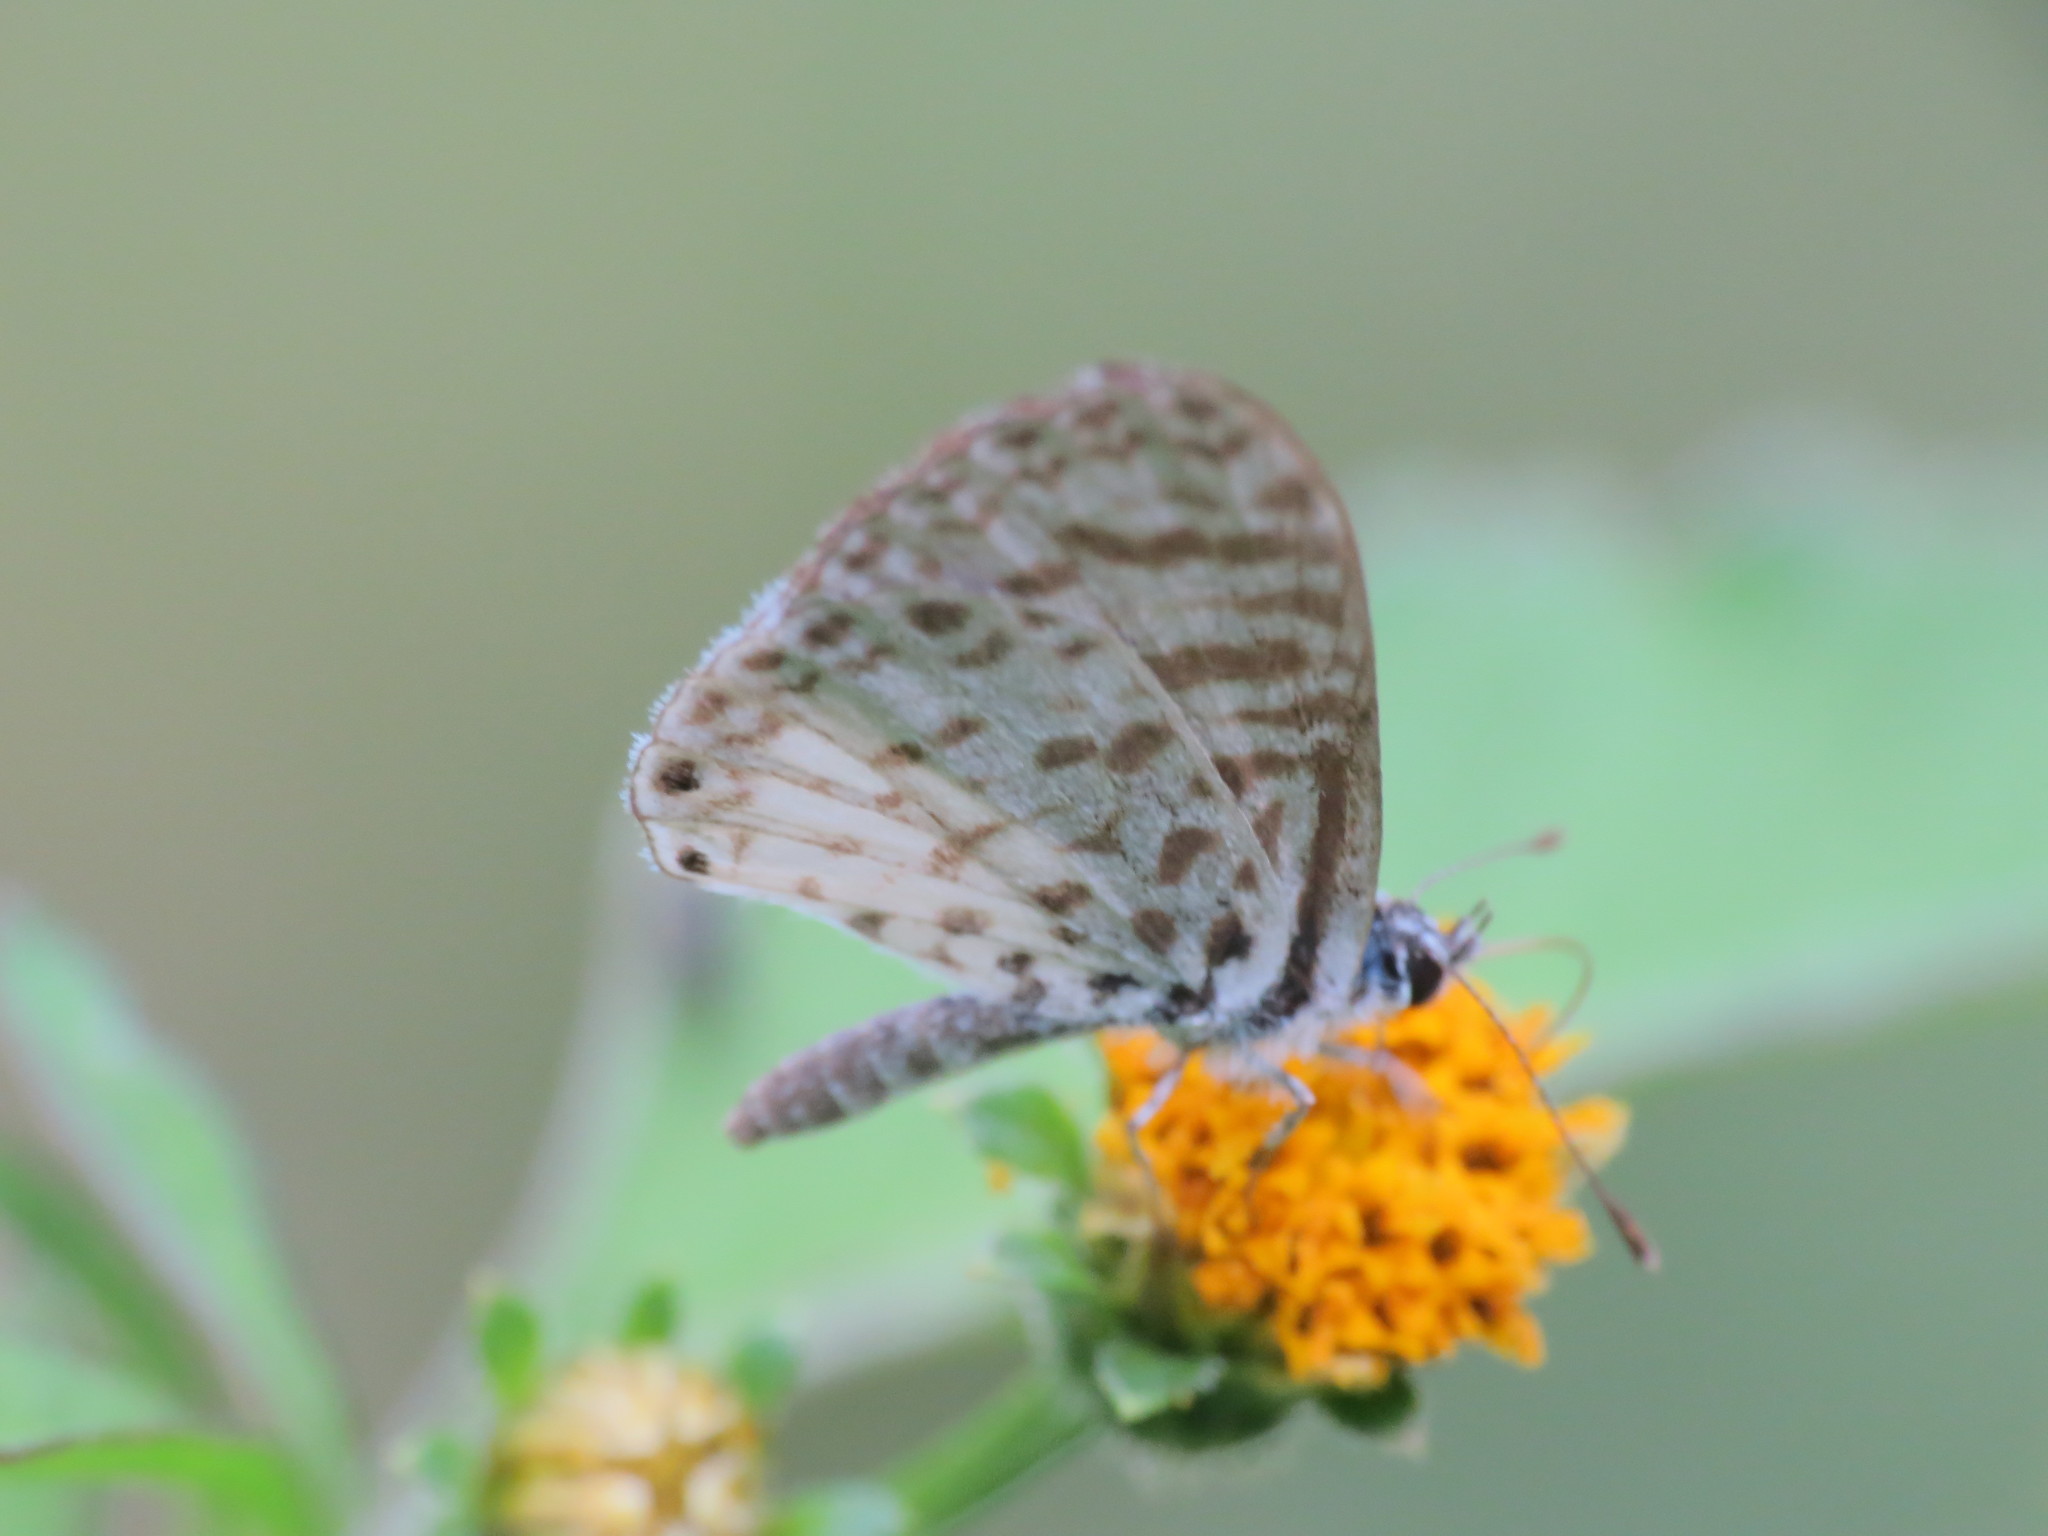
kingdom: Animalia
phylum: Arthropoda
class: Insecta
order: Lepidoptera
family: Lycaenidae
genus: Leptotes
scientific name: Leptotes cassius
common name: Cassius blue
